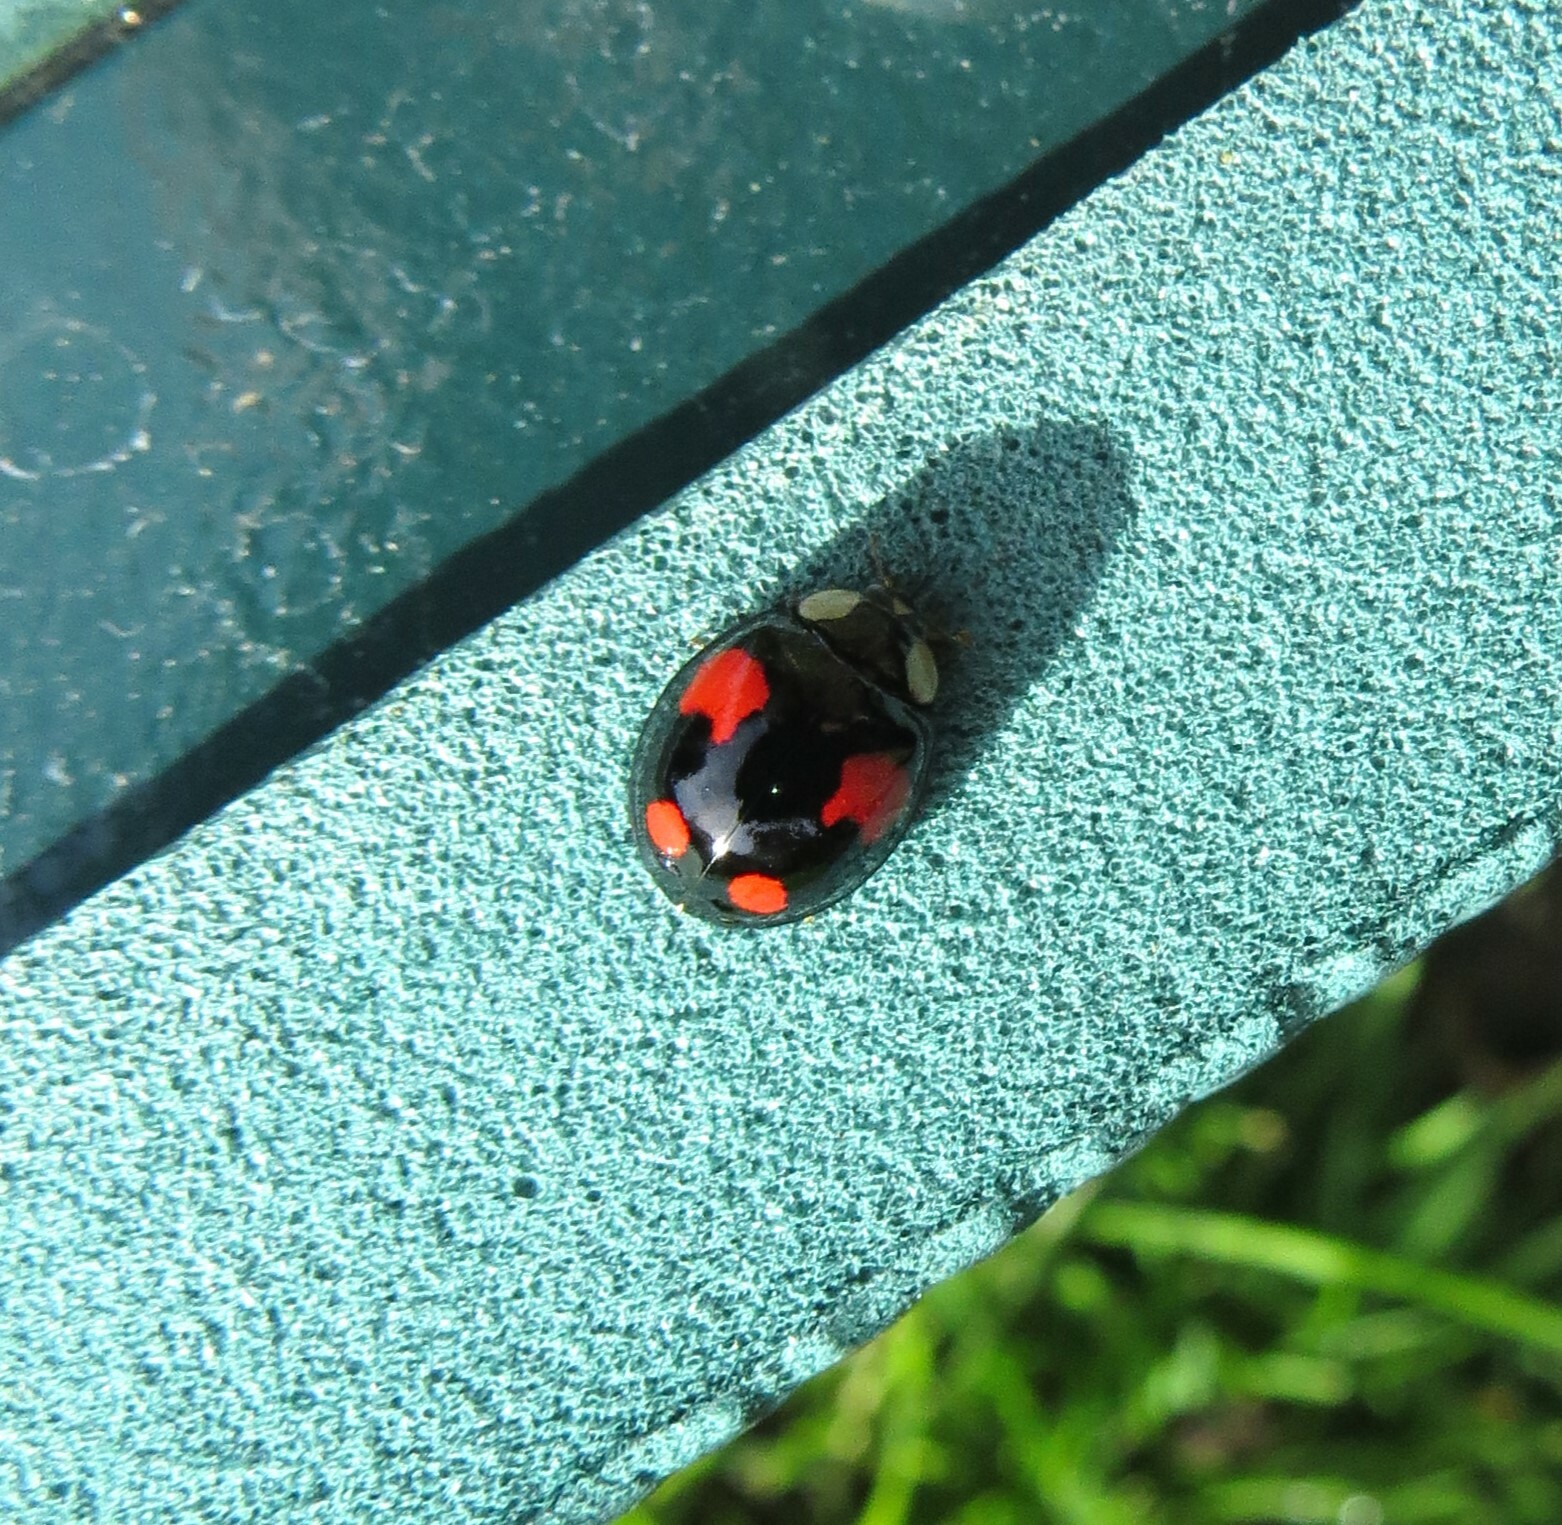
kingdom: Animalia
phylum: Arthropoda
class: Insecta
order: Coleoptera
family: Coccinellidae
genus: Harmonia
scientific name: Harmonia axyridis
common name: Harlequin ladybird
